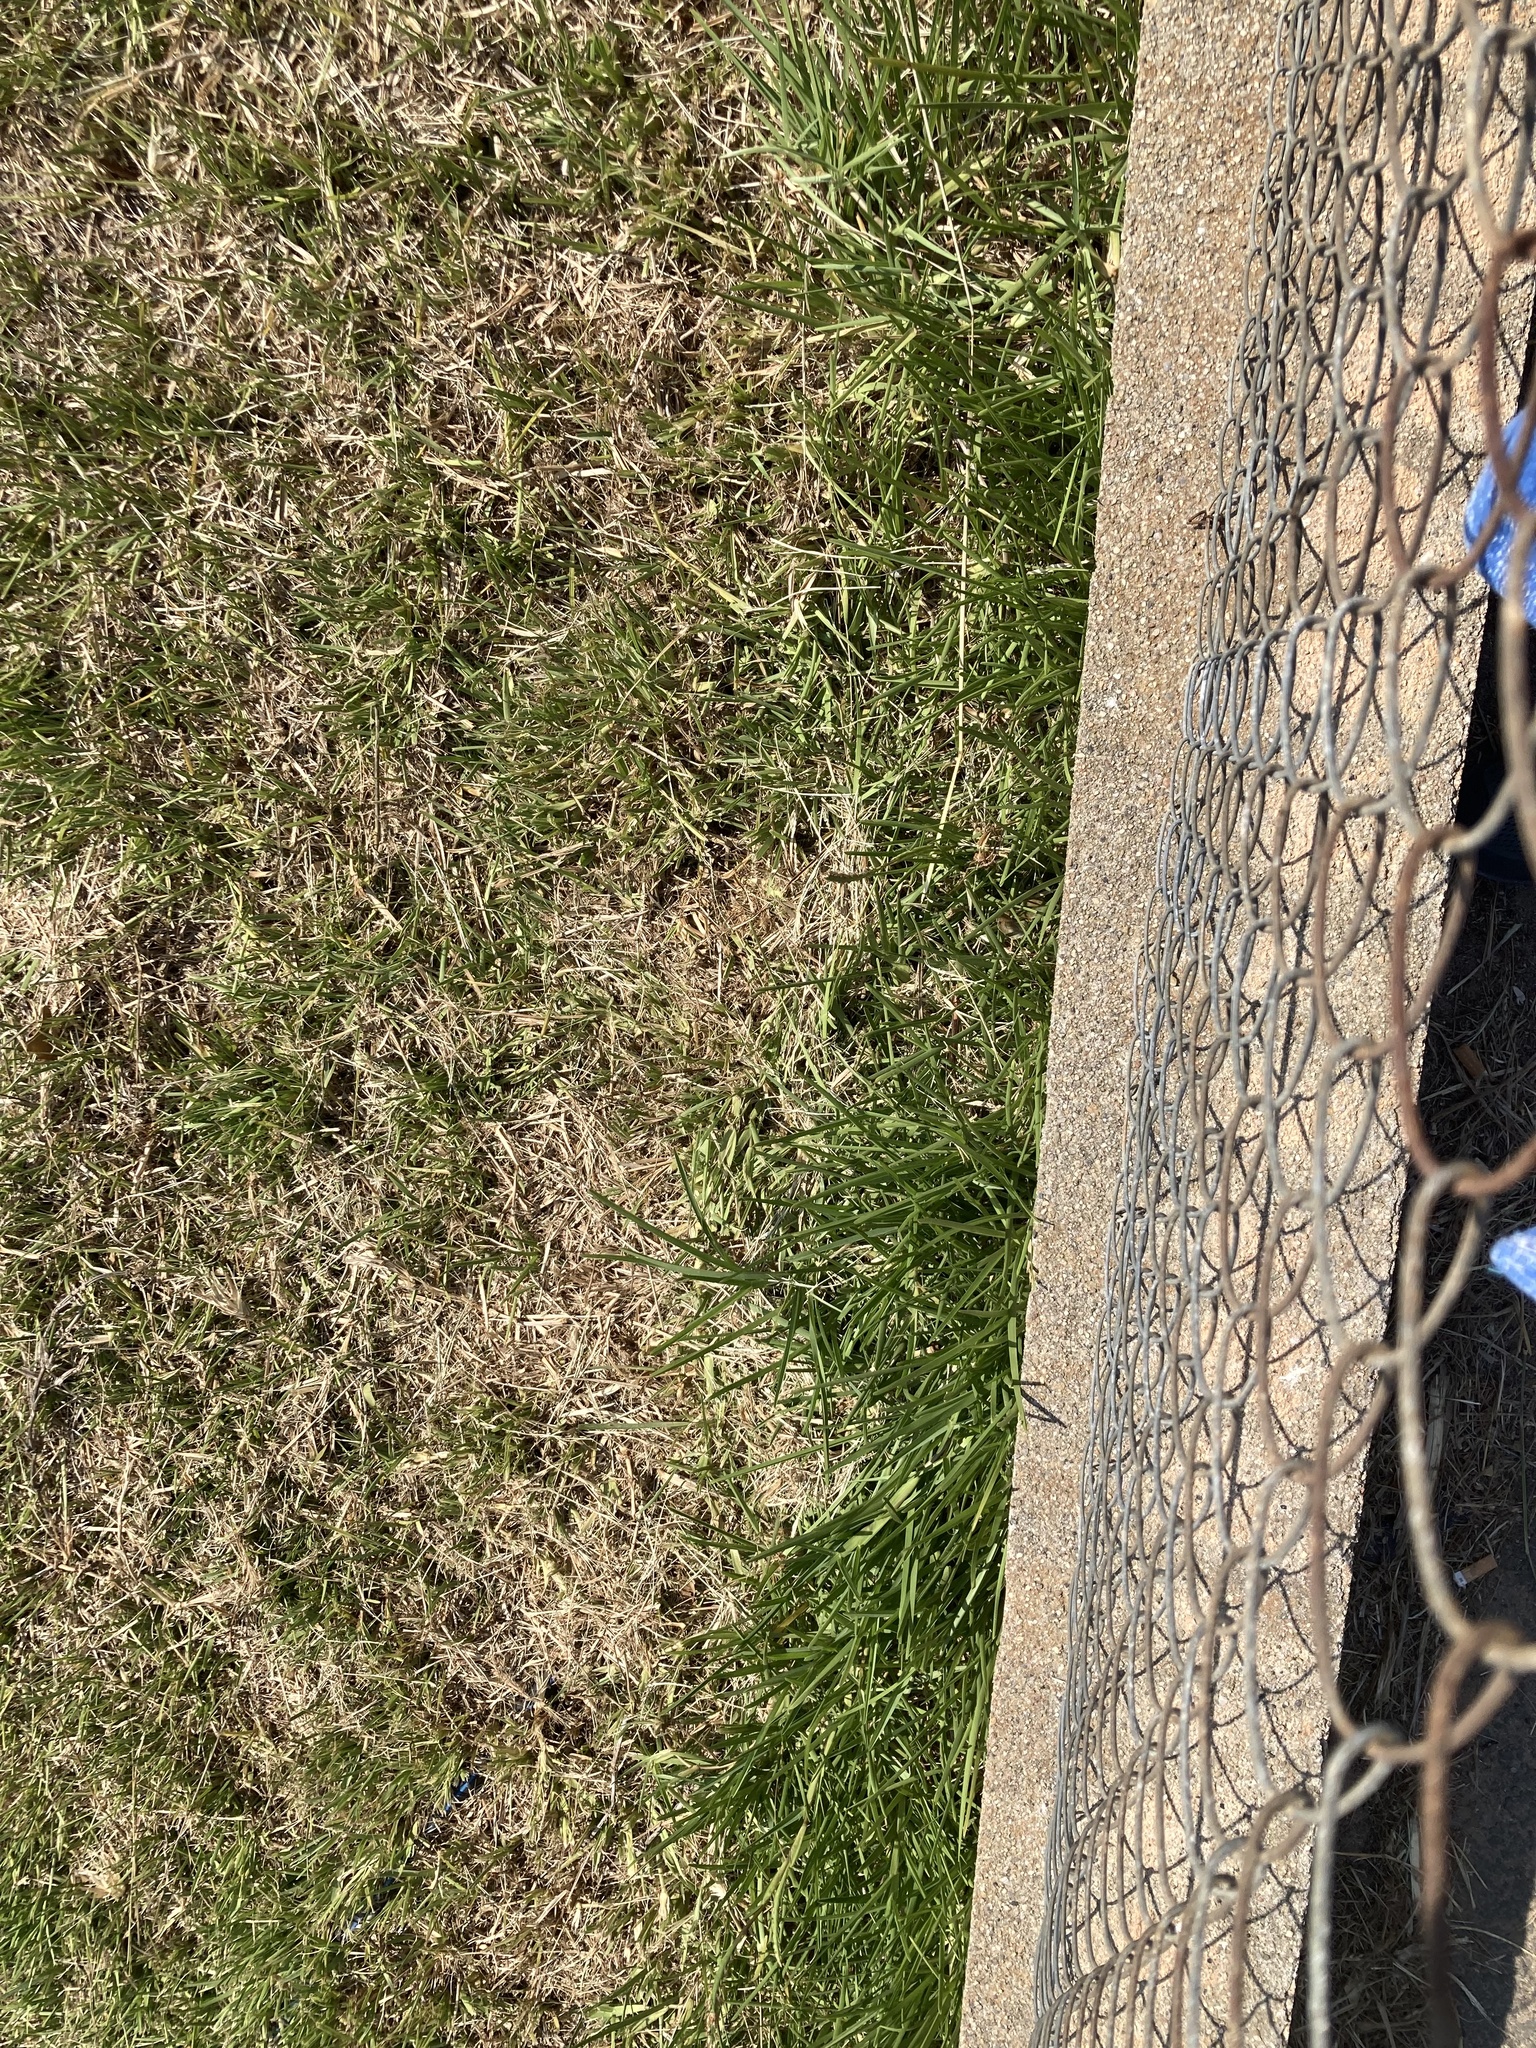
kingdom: Plantae
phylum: Tracheophyta
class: Liliopsida
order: Poales
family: Poaceae
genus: Stenotaphrum
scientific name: Stenotaphrum secundatum
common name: St. augustine grass
